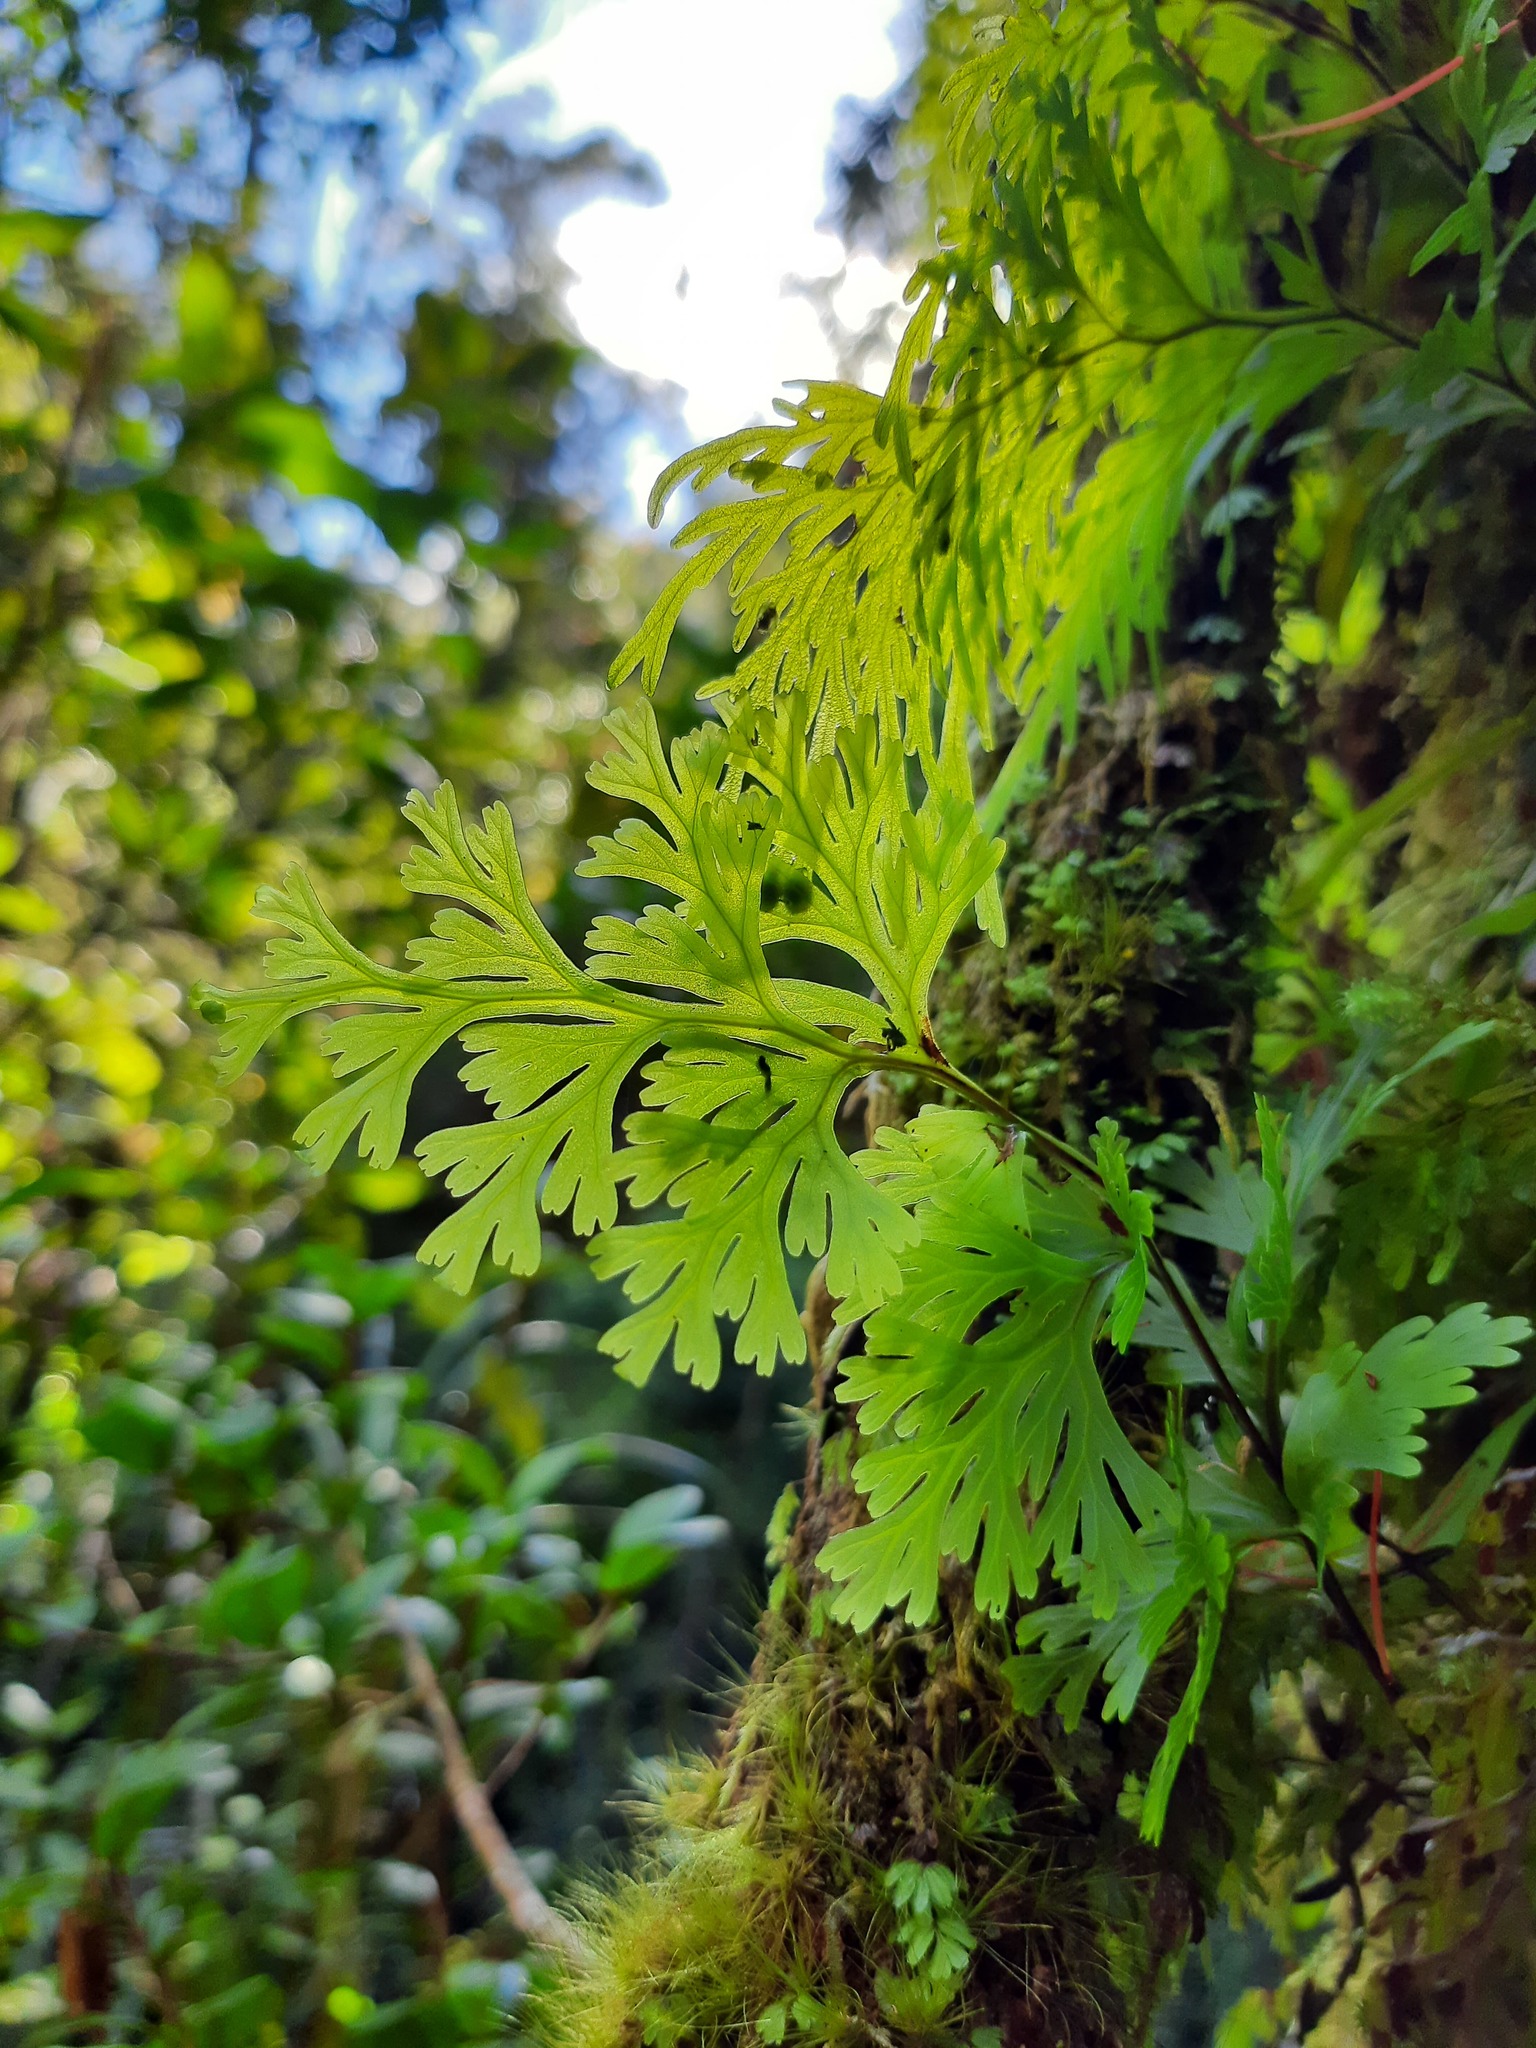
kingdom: Plantae
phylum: Tracheophyta
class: Polypodiopsida
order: Hymenophyllales
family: Hymenophyllaceae
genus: Hymenophyllum
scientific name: Hymenophyllum dilatatum
